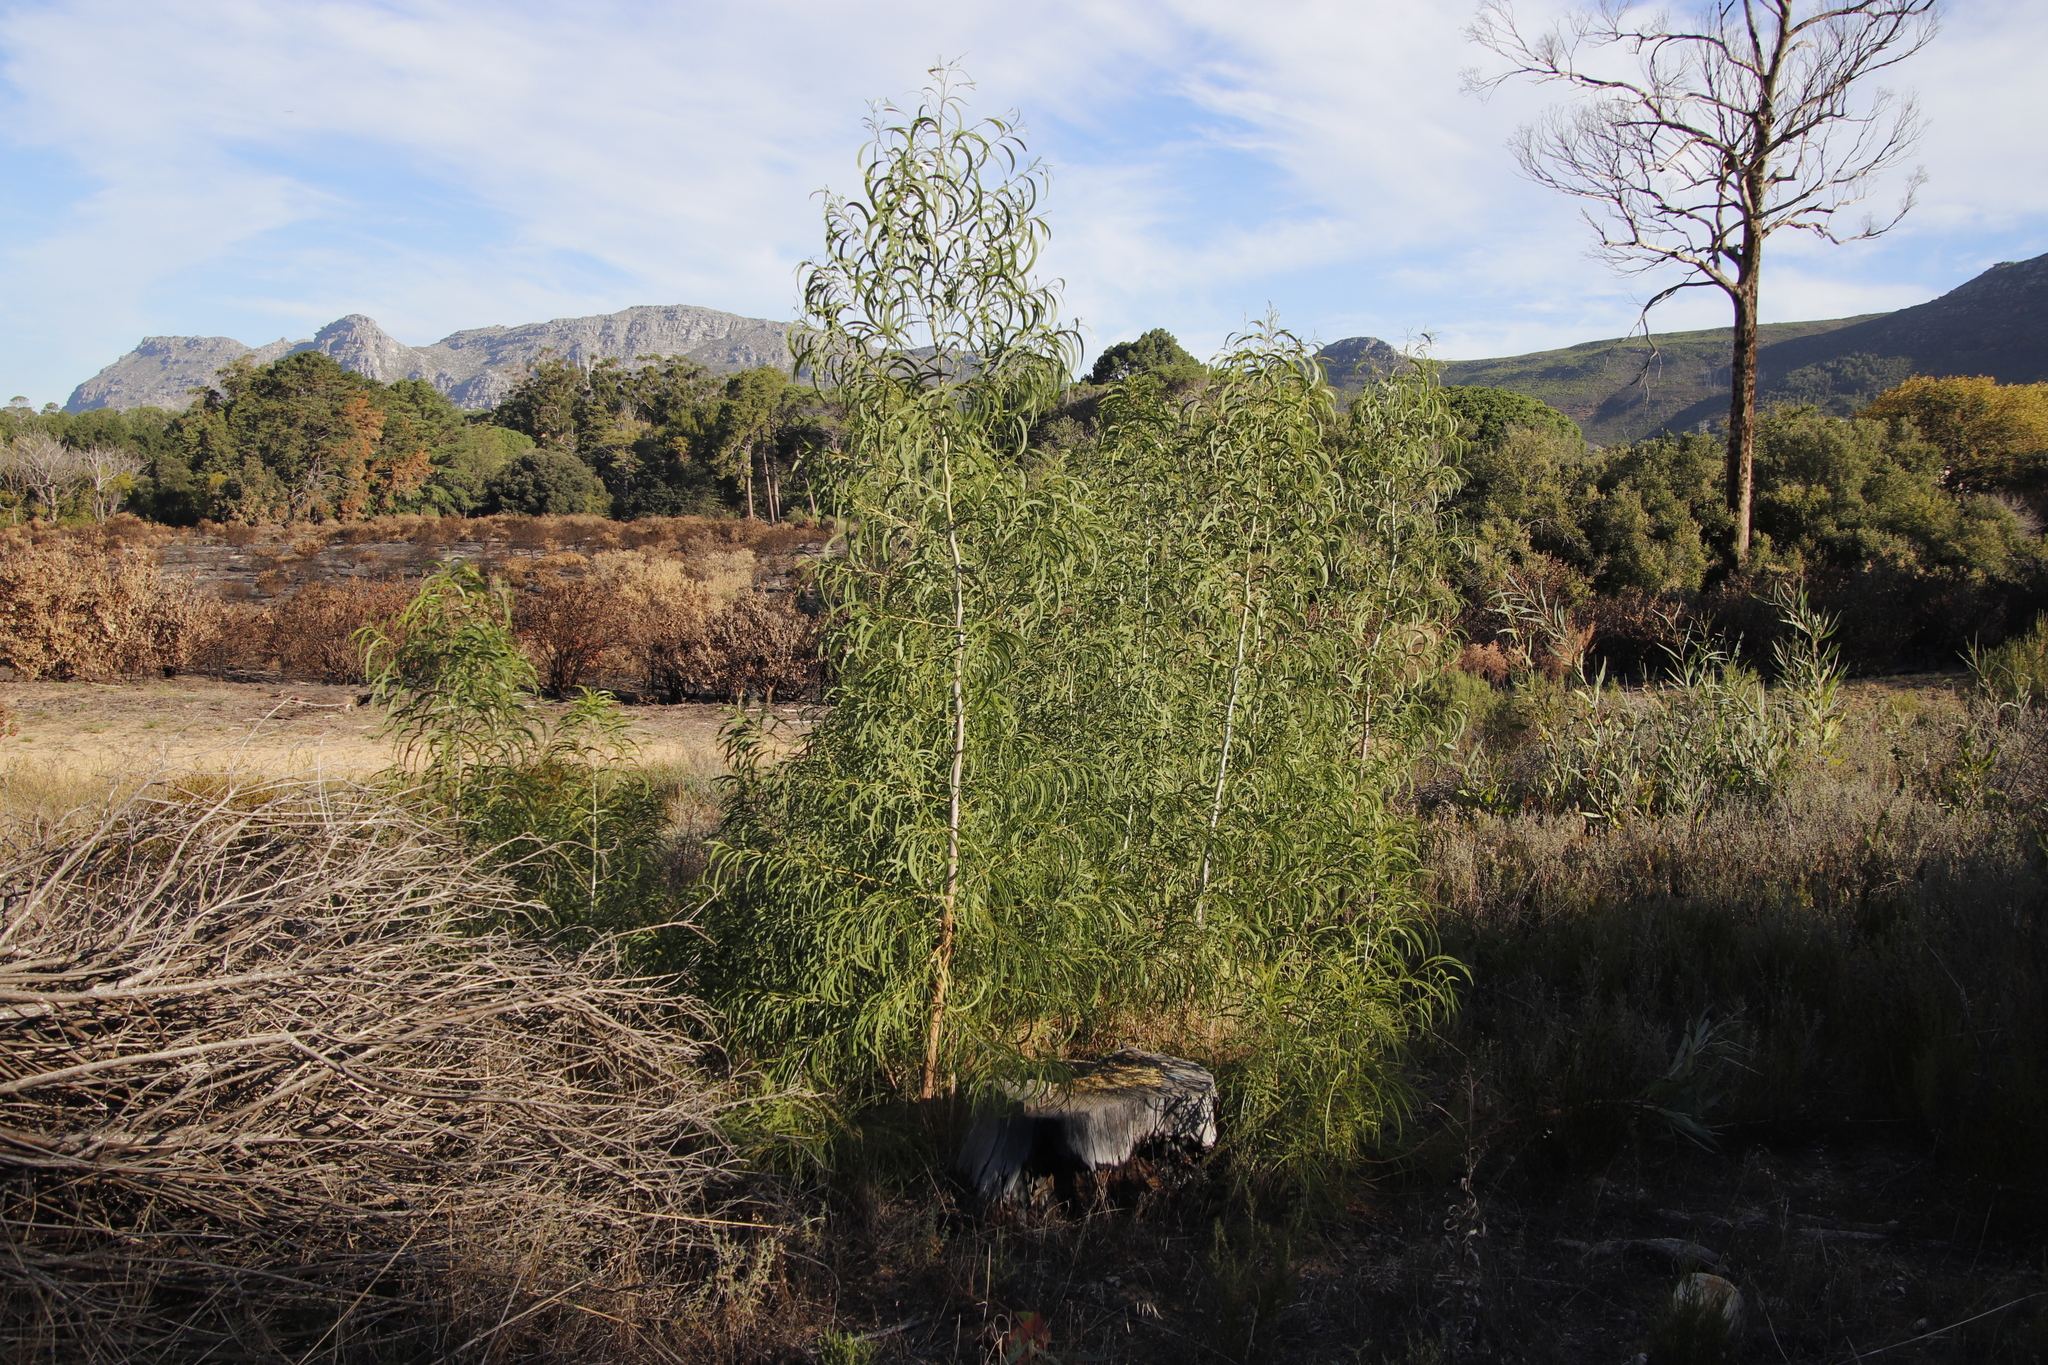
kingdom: Plantae
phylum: Tracheophyta
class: Magnoliopsida
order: Fabales
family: Fabaceae
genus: Acacia
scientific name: Acacia implexa
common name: Black wattle
